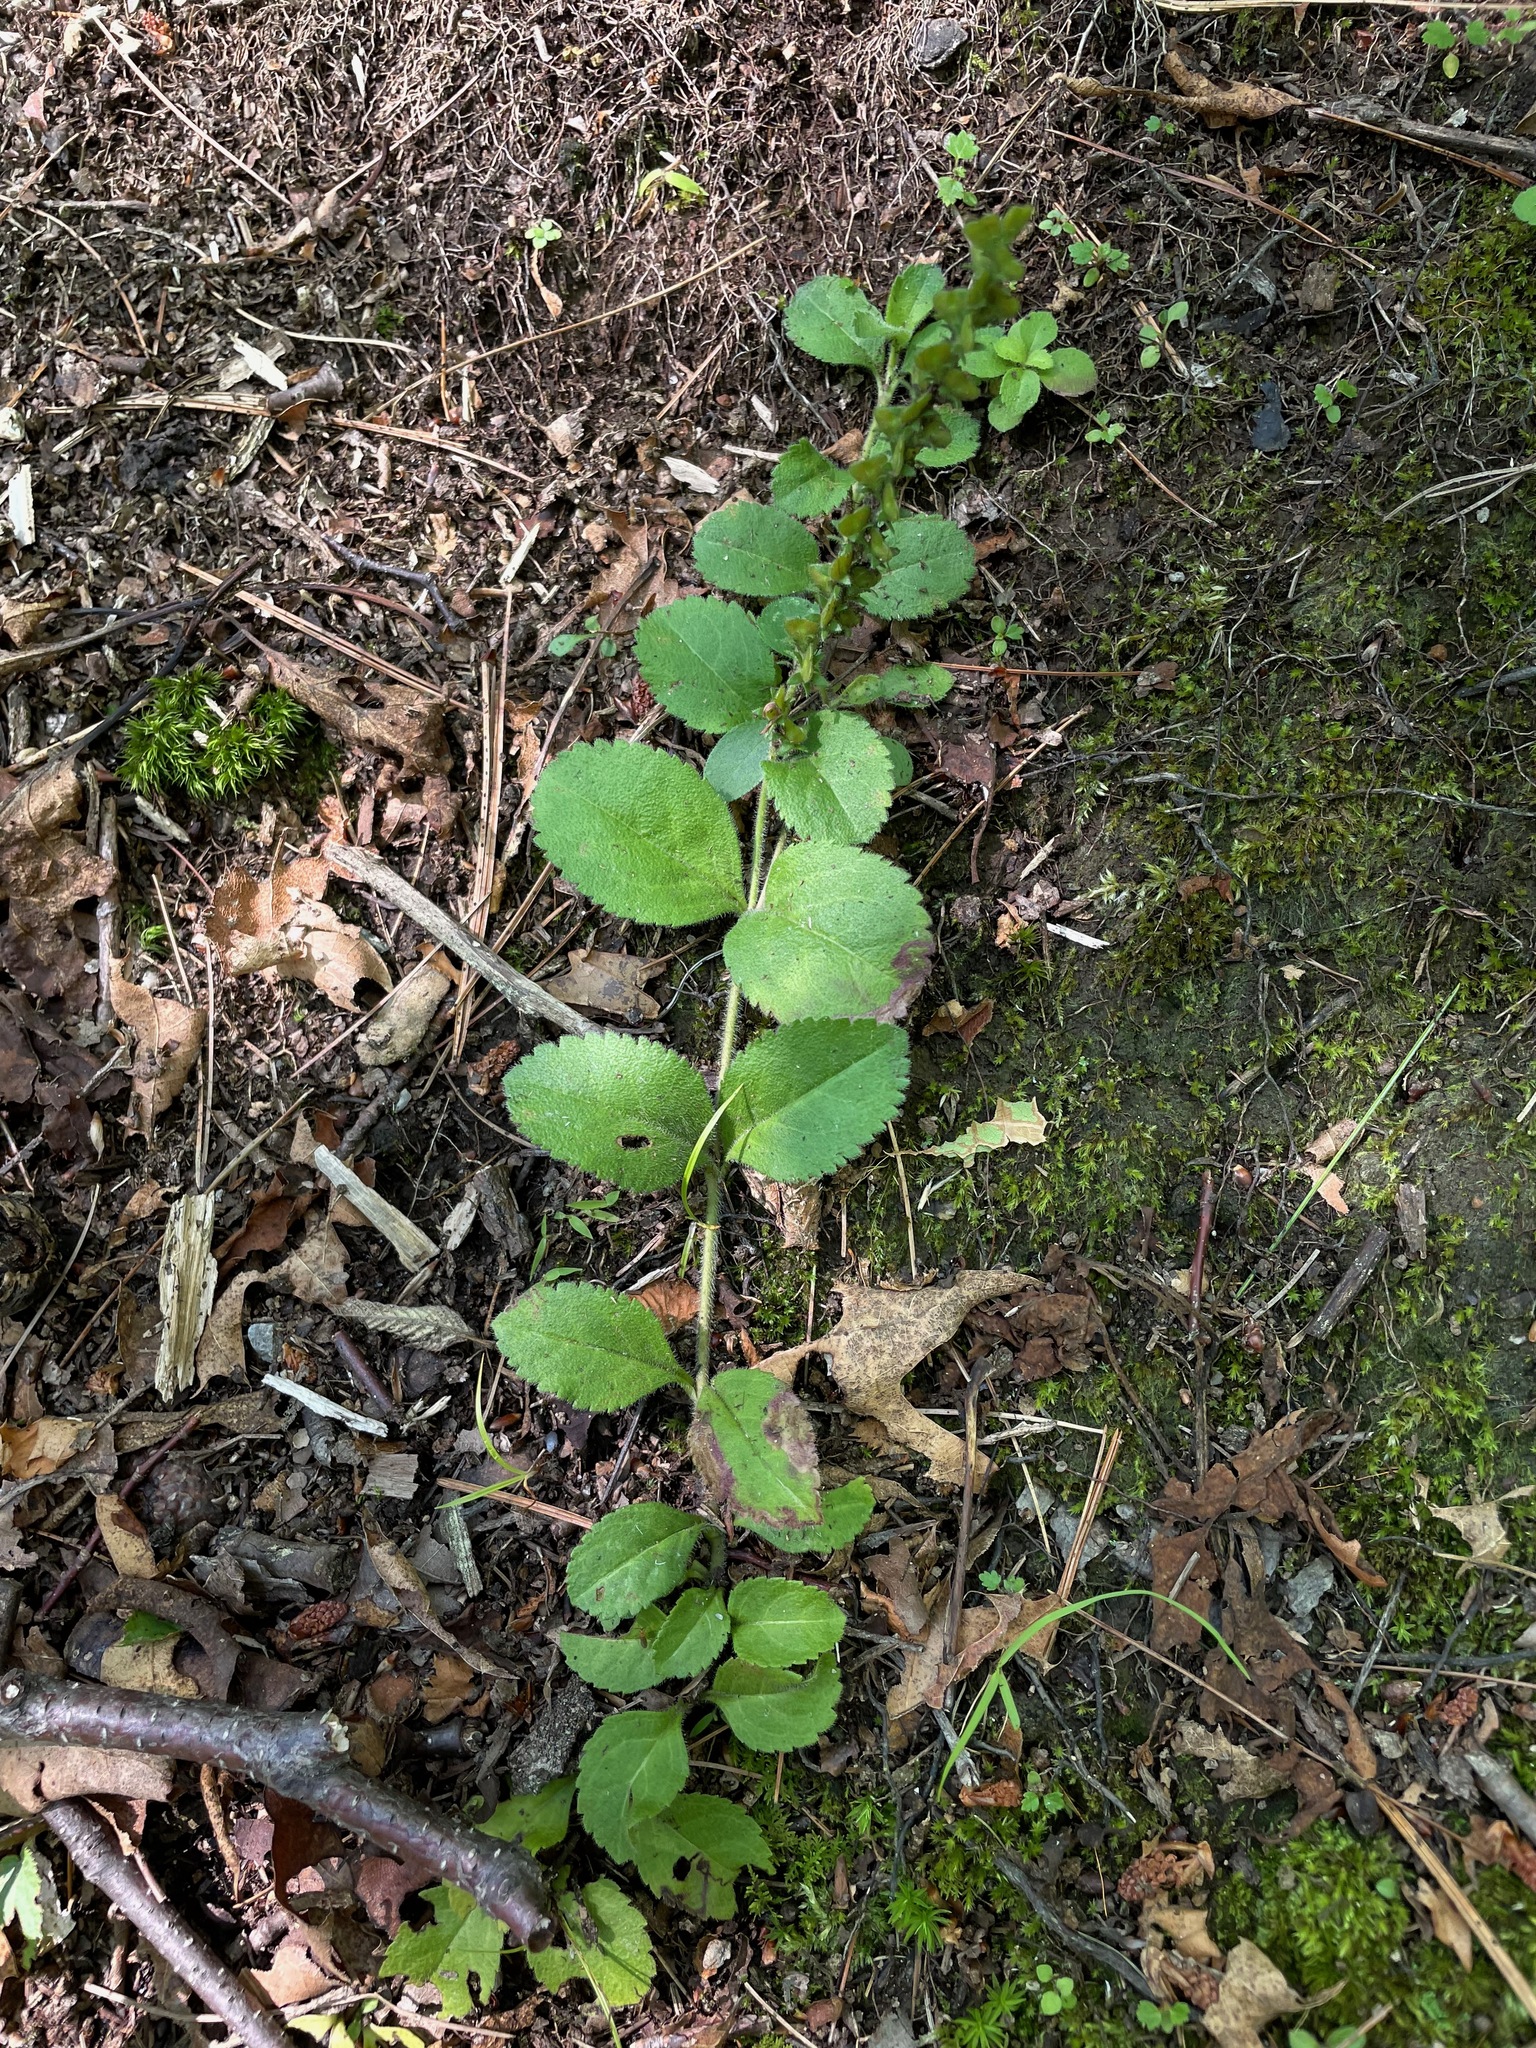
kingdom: Plantae
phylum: Tracheophyta
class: Magnoliopsida
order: Lamiales
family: Plantaginaceae
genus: Veronica
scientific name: Veronica officinalis
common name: Common speedwell
